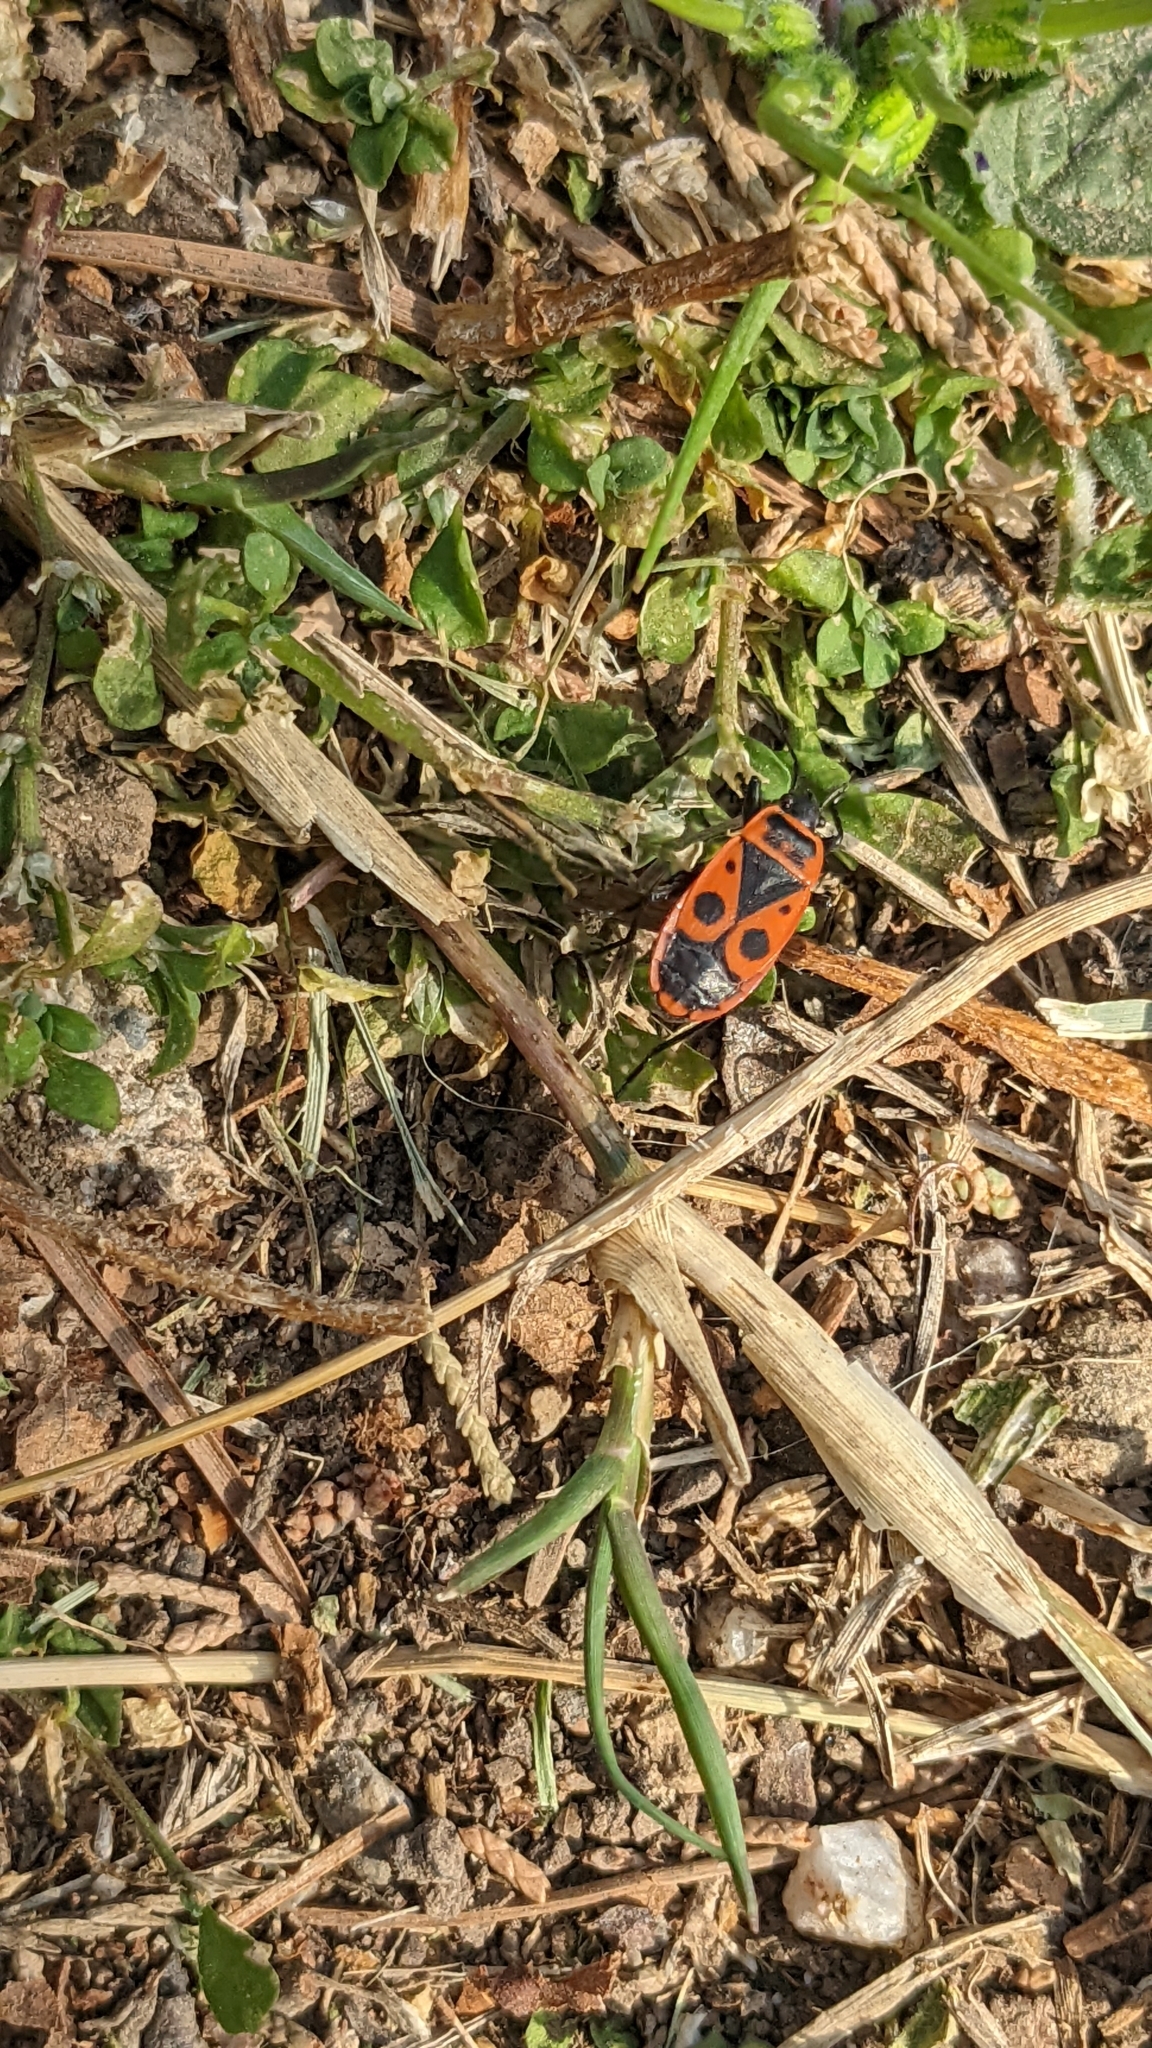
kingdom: Animalia
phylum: Arthropoda
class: Insecta
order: Hemiptera
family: Pyrrhocoridae
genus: Pyrrhocoris
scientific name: Pyrrhocoris apterus
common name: Firebug
